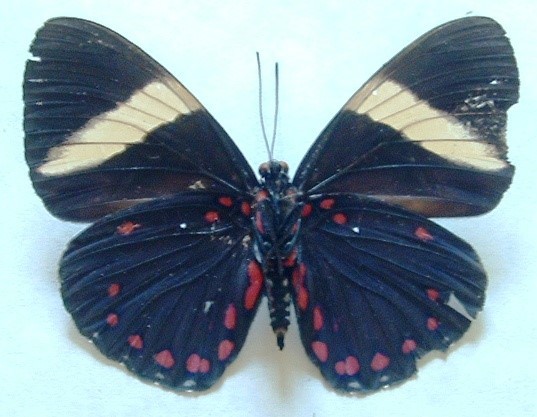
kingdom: Animalia
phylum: Arthropoda
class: Insecta
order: Lepidoptera
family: Nymphalidae
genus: Hamadryas
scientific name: Hamadryas arethusa
